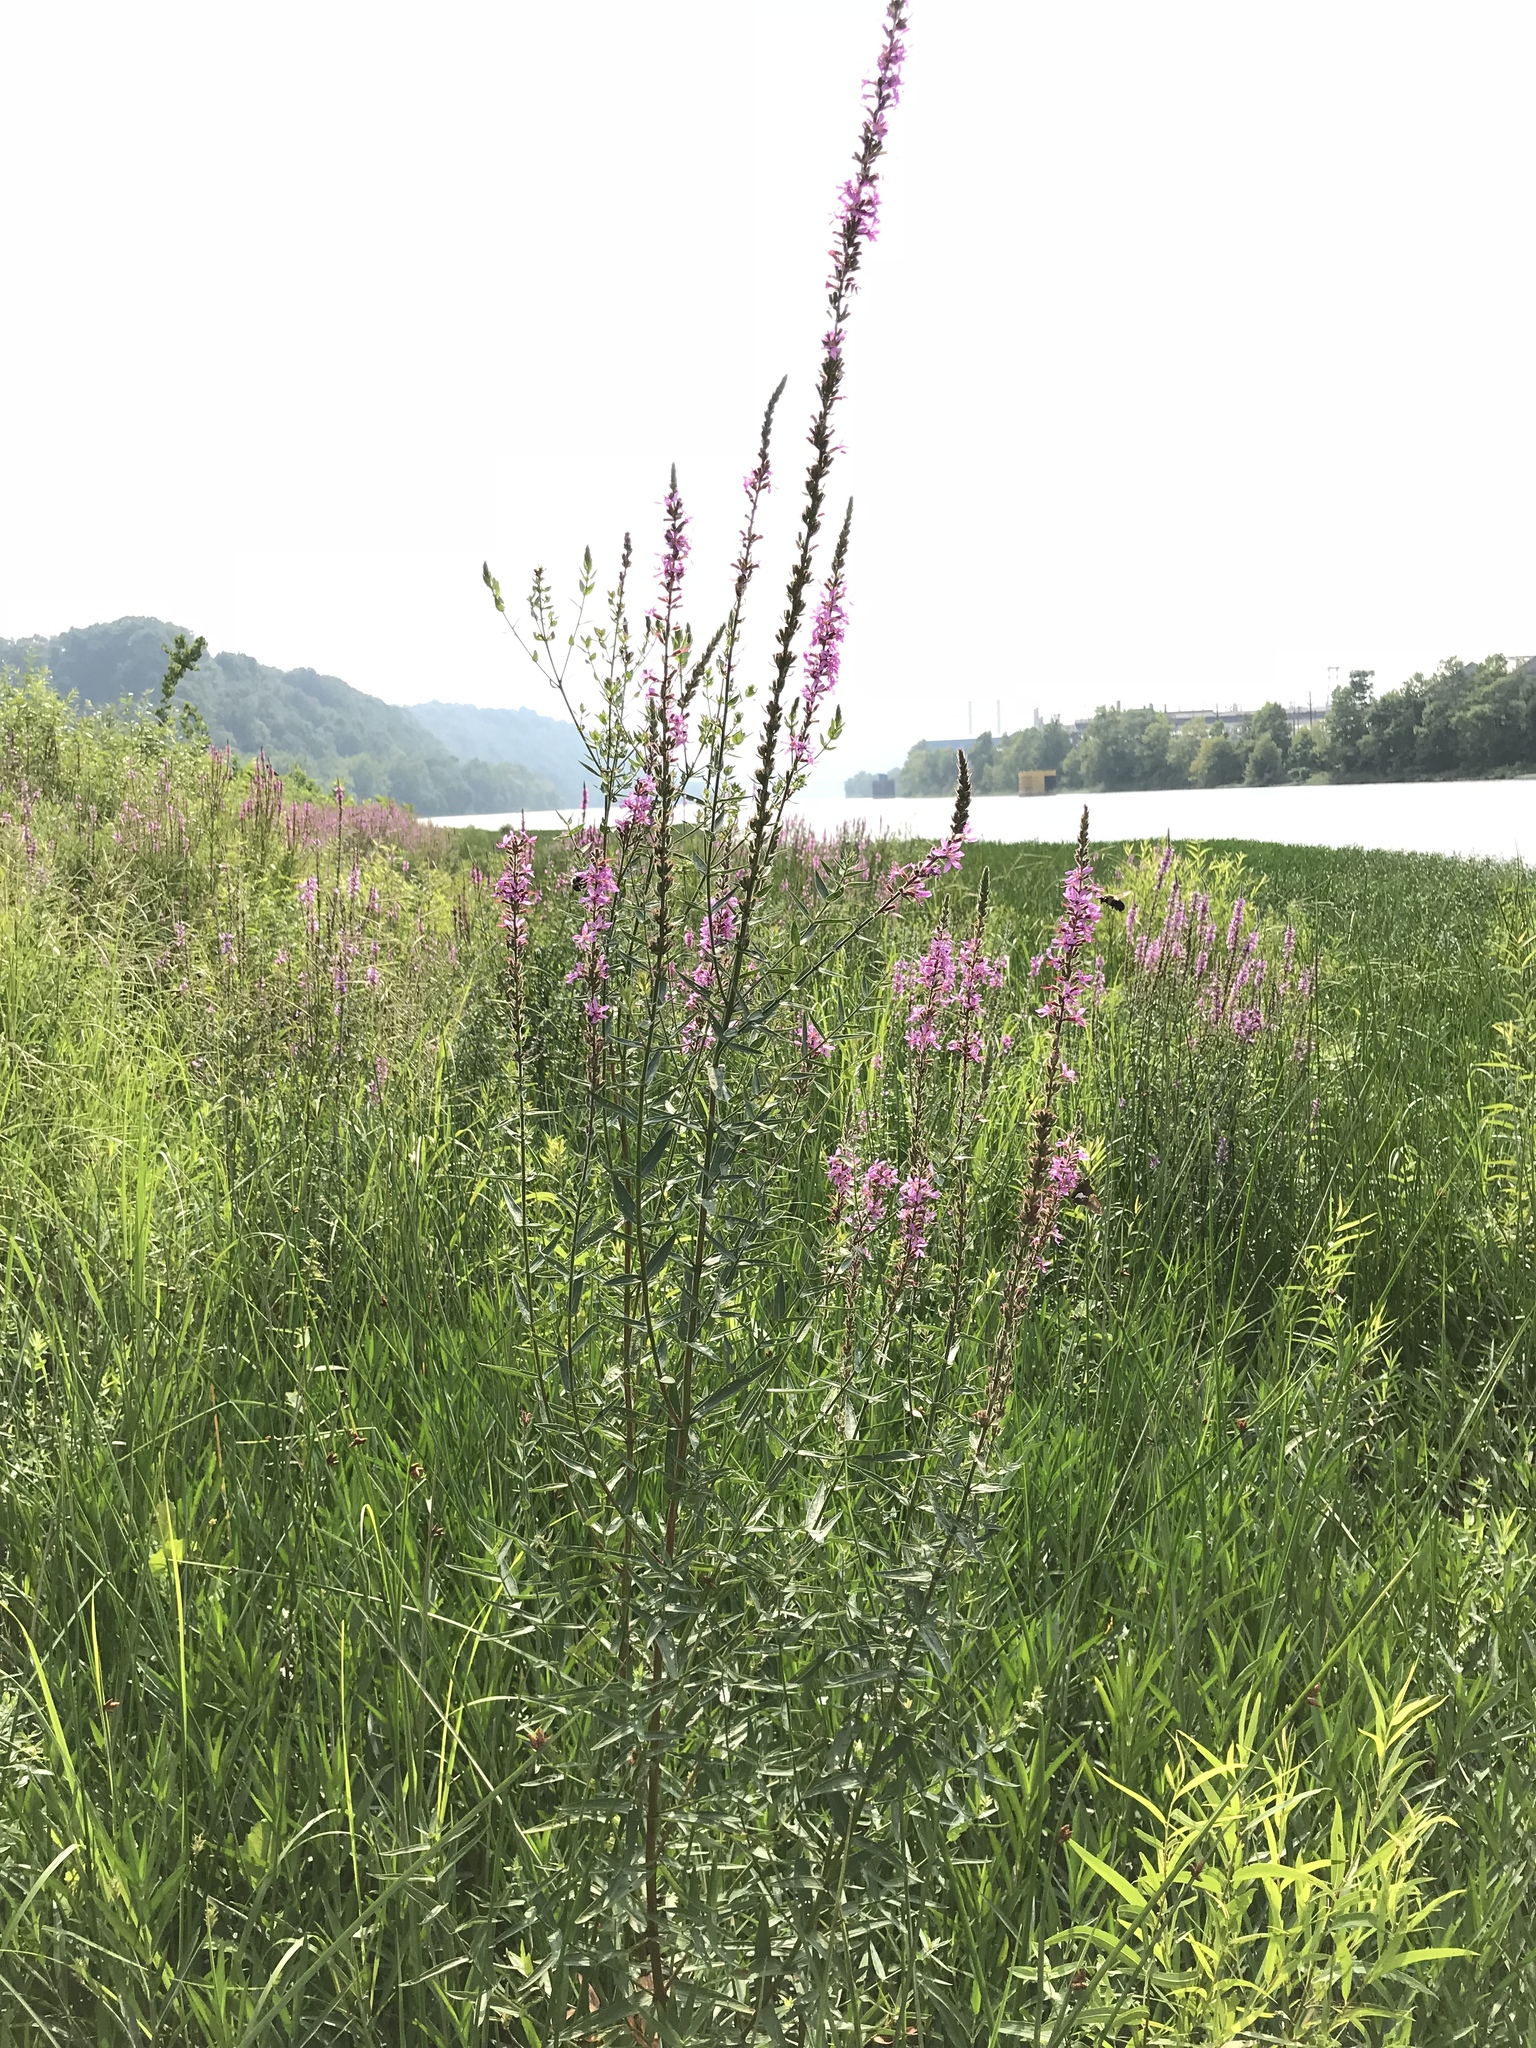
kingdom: Plantae
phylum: Tracheophyta
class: Magnoliopsida
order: Myrtales
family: Lythraceae
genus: Lythrum
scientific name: Lythrum salicaria
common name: Purple loosestrife
